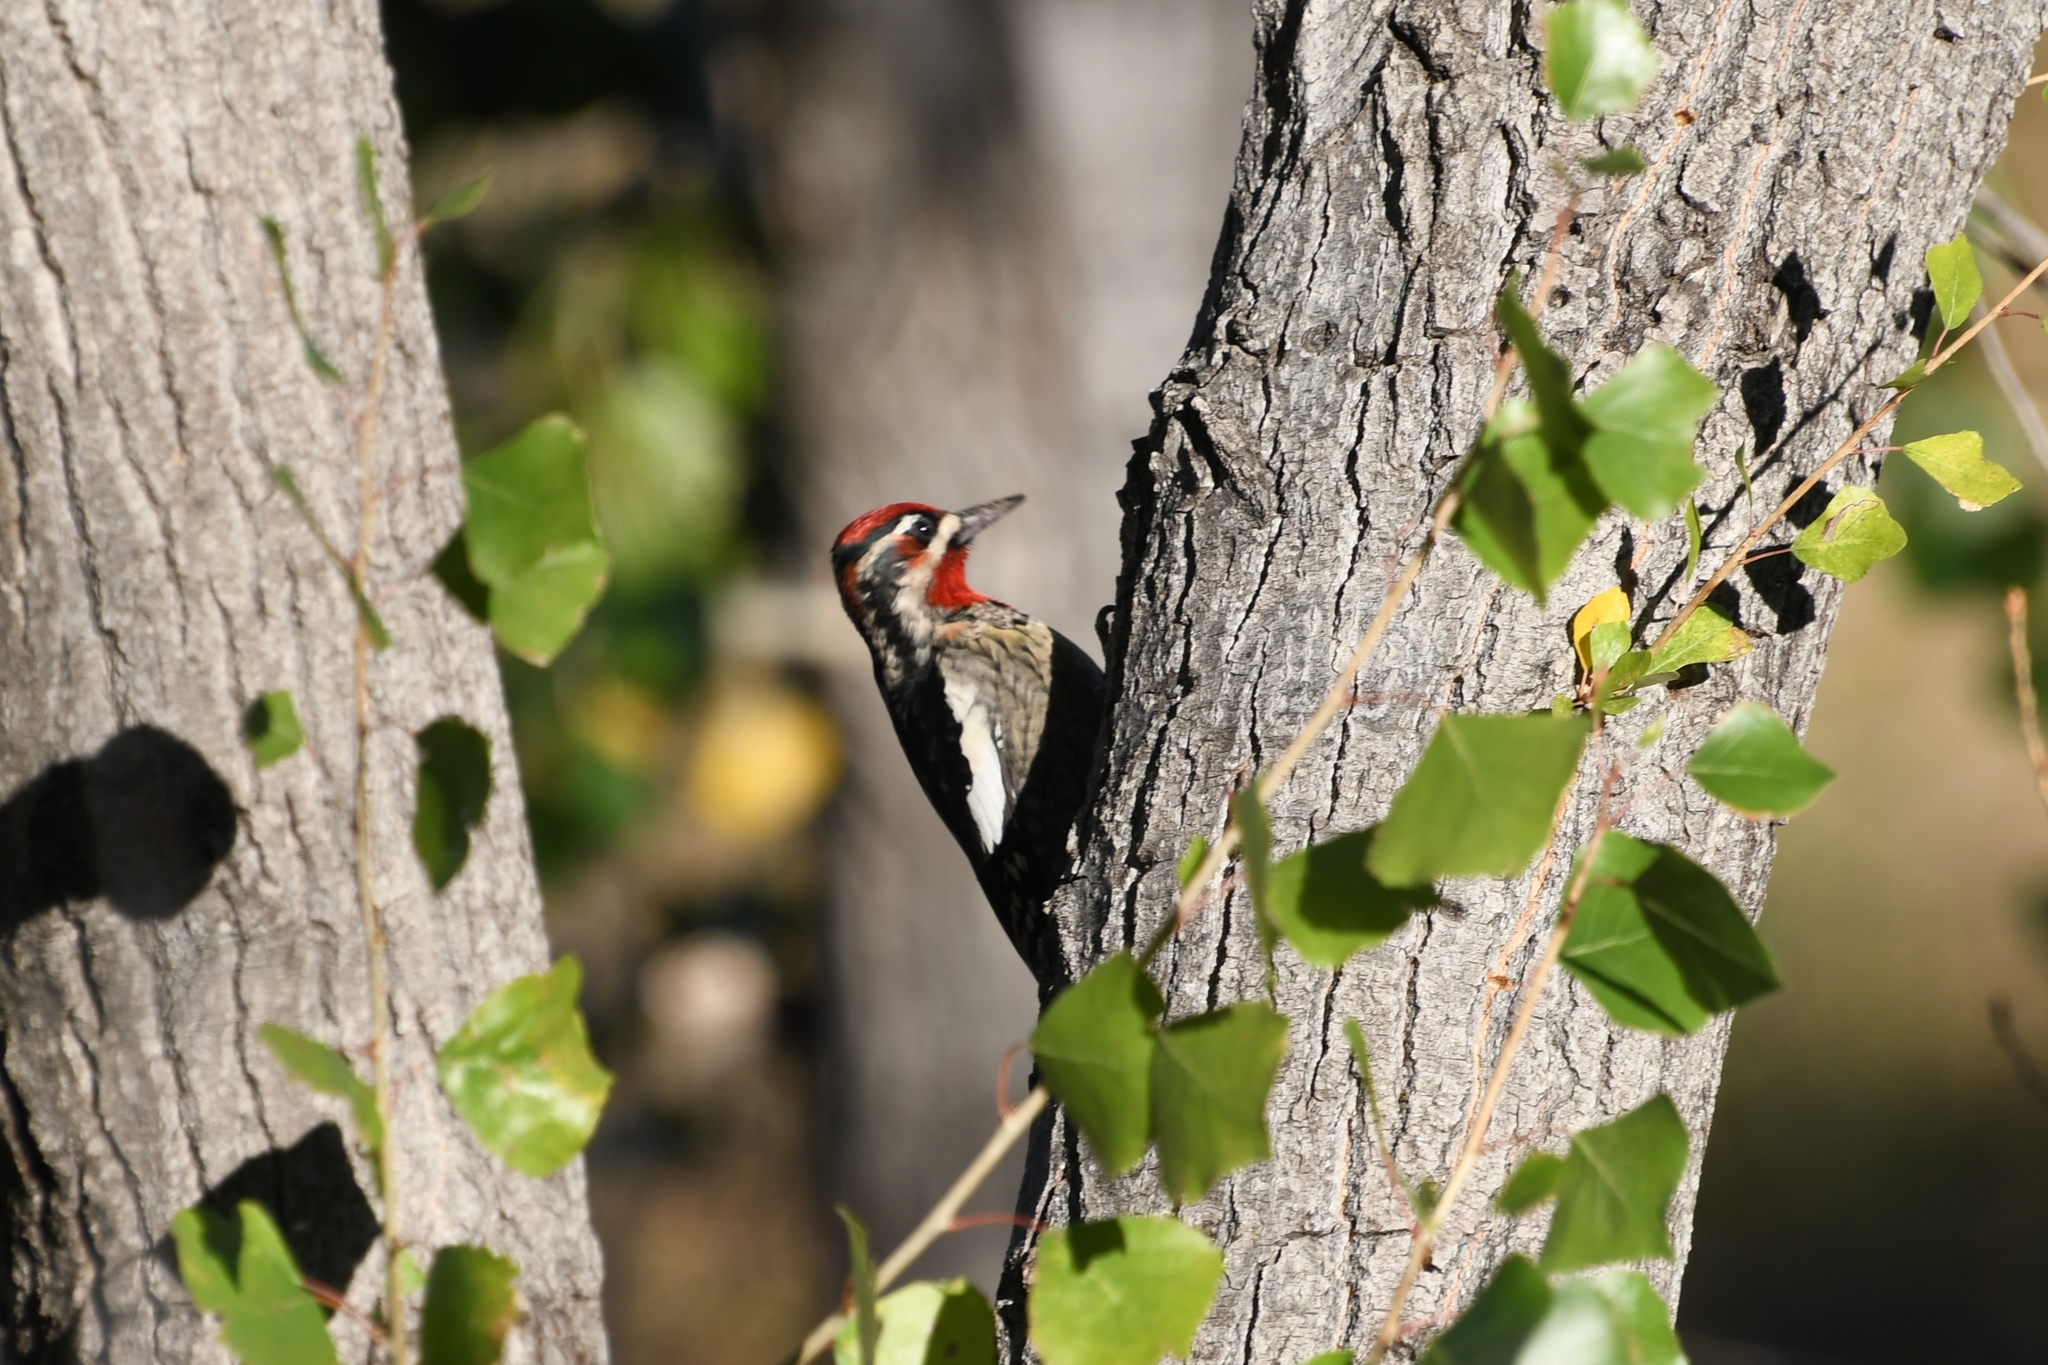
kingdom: Animalia
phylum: Chordata
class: Aves
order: Piciformes
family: Picidae
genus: Sphyrapicus
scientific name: Sphyrapicus nuchalis
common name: Red-naped sapsucker
